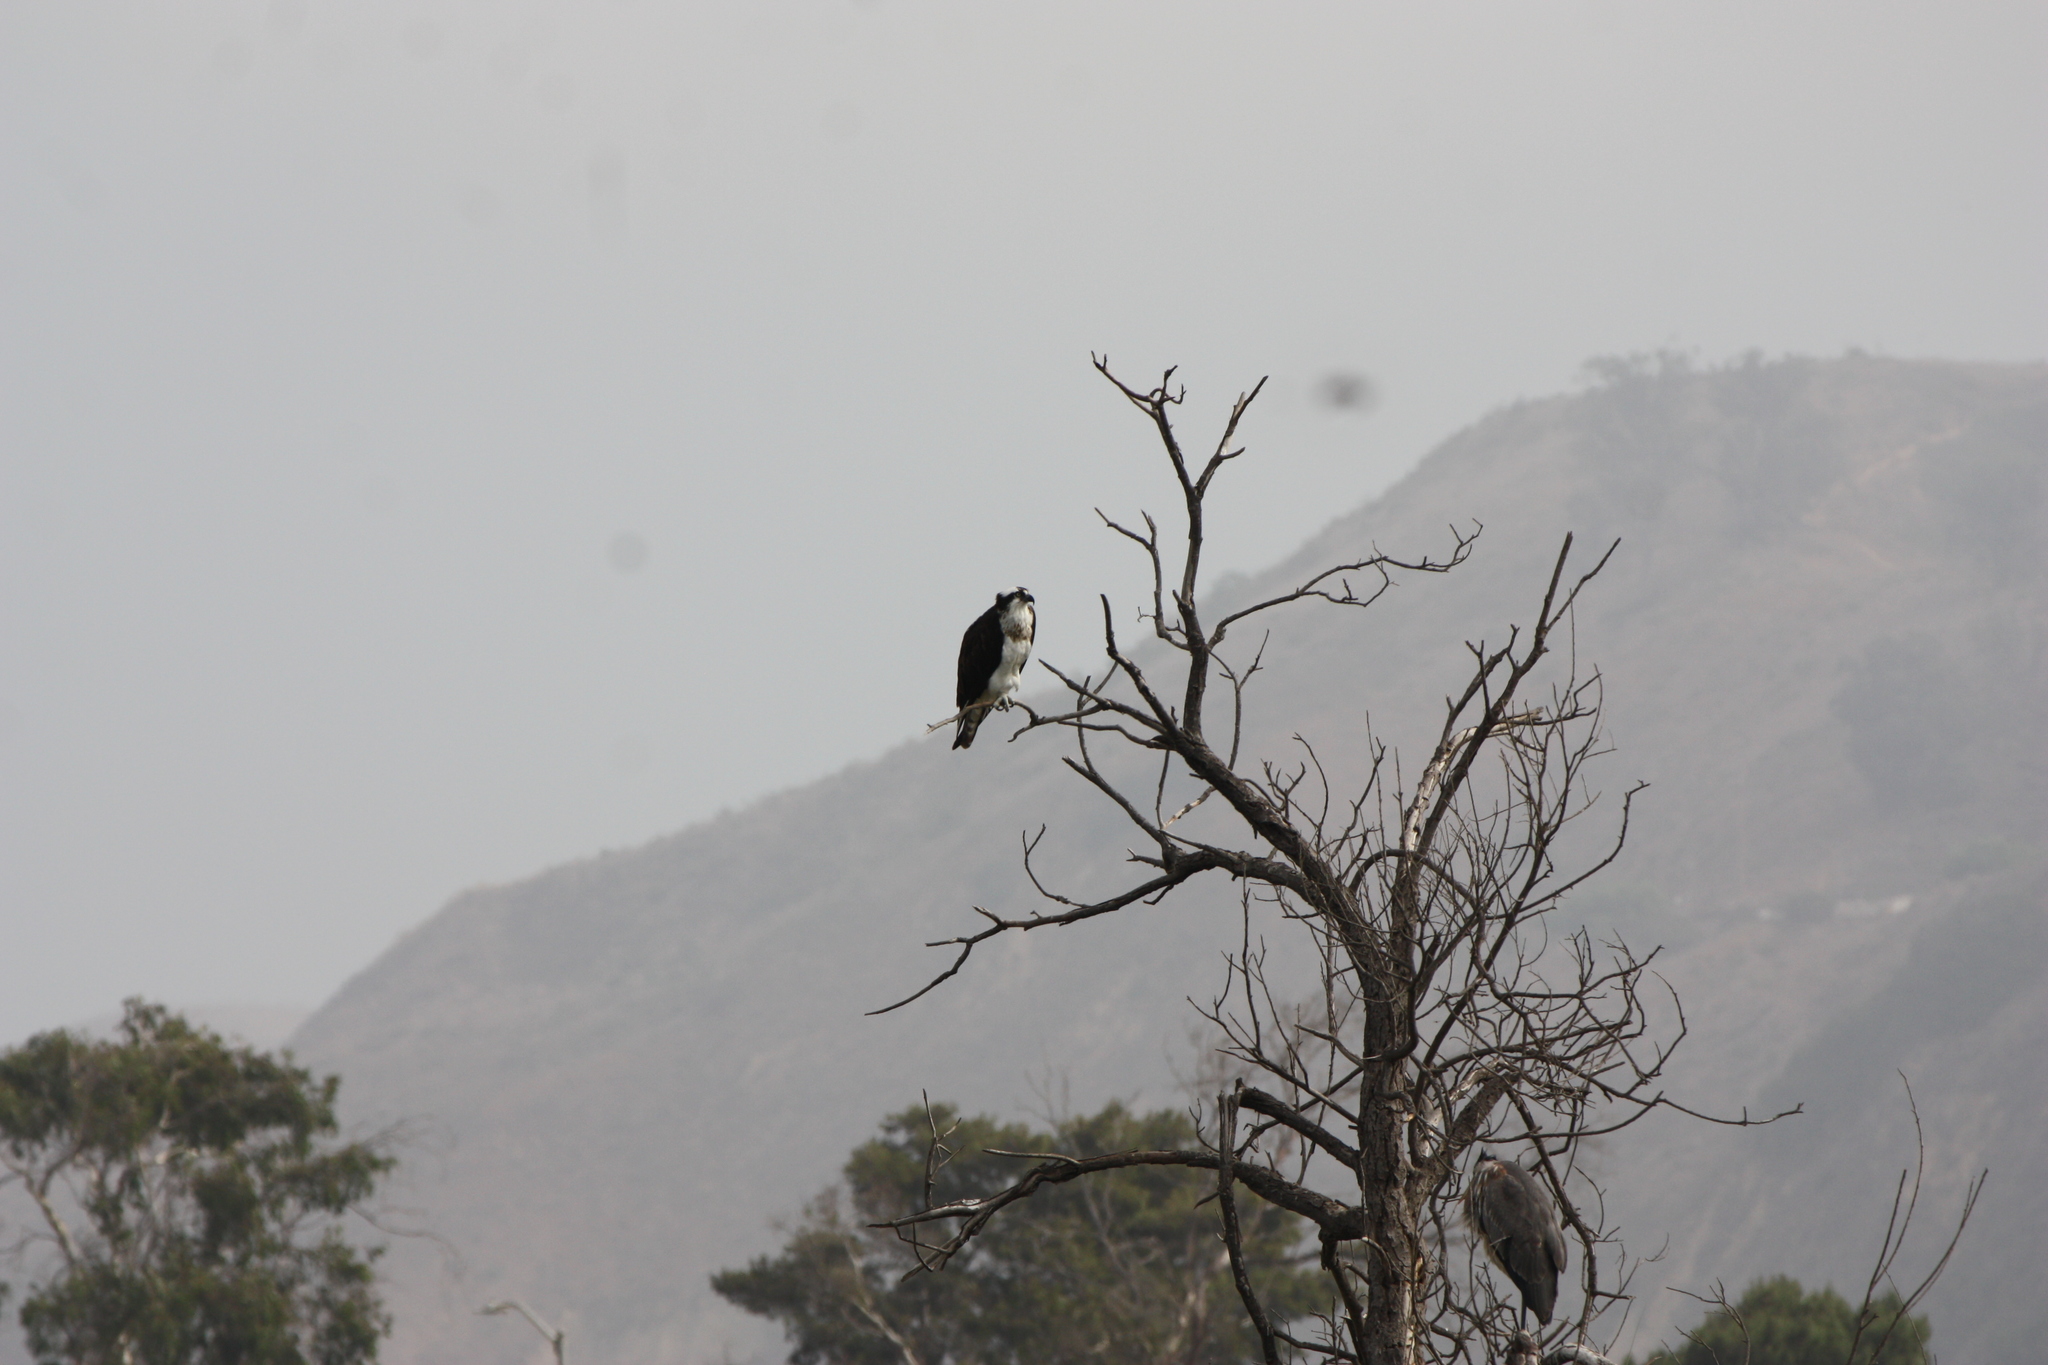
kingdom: Animalia
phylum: Chordata
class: Aves
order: Accipitriformes
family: Pandionidae
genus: Pandion
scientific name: Pandion haliaetus
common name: Osprey
